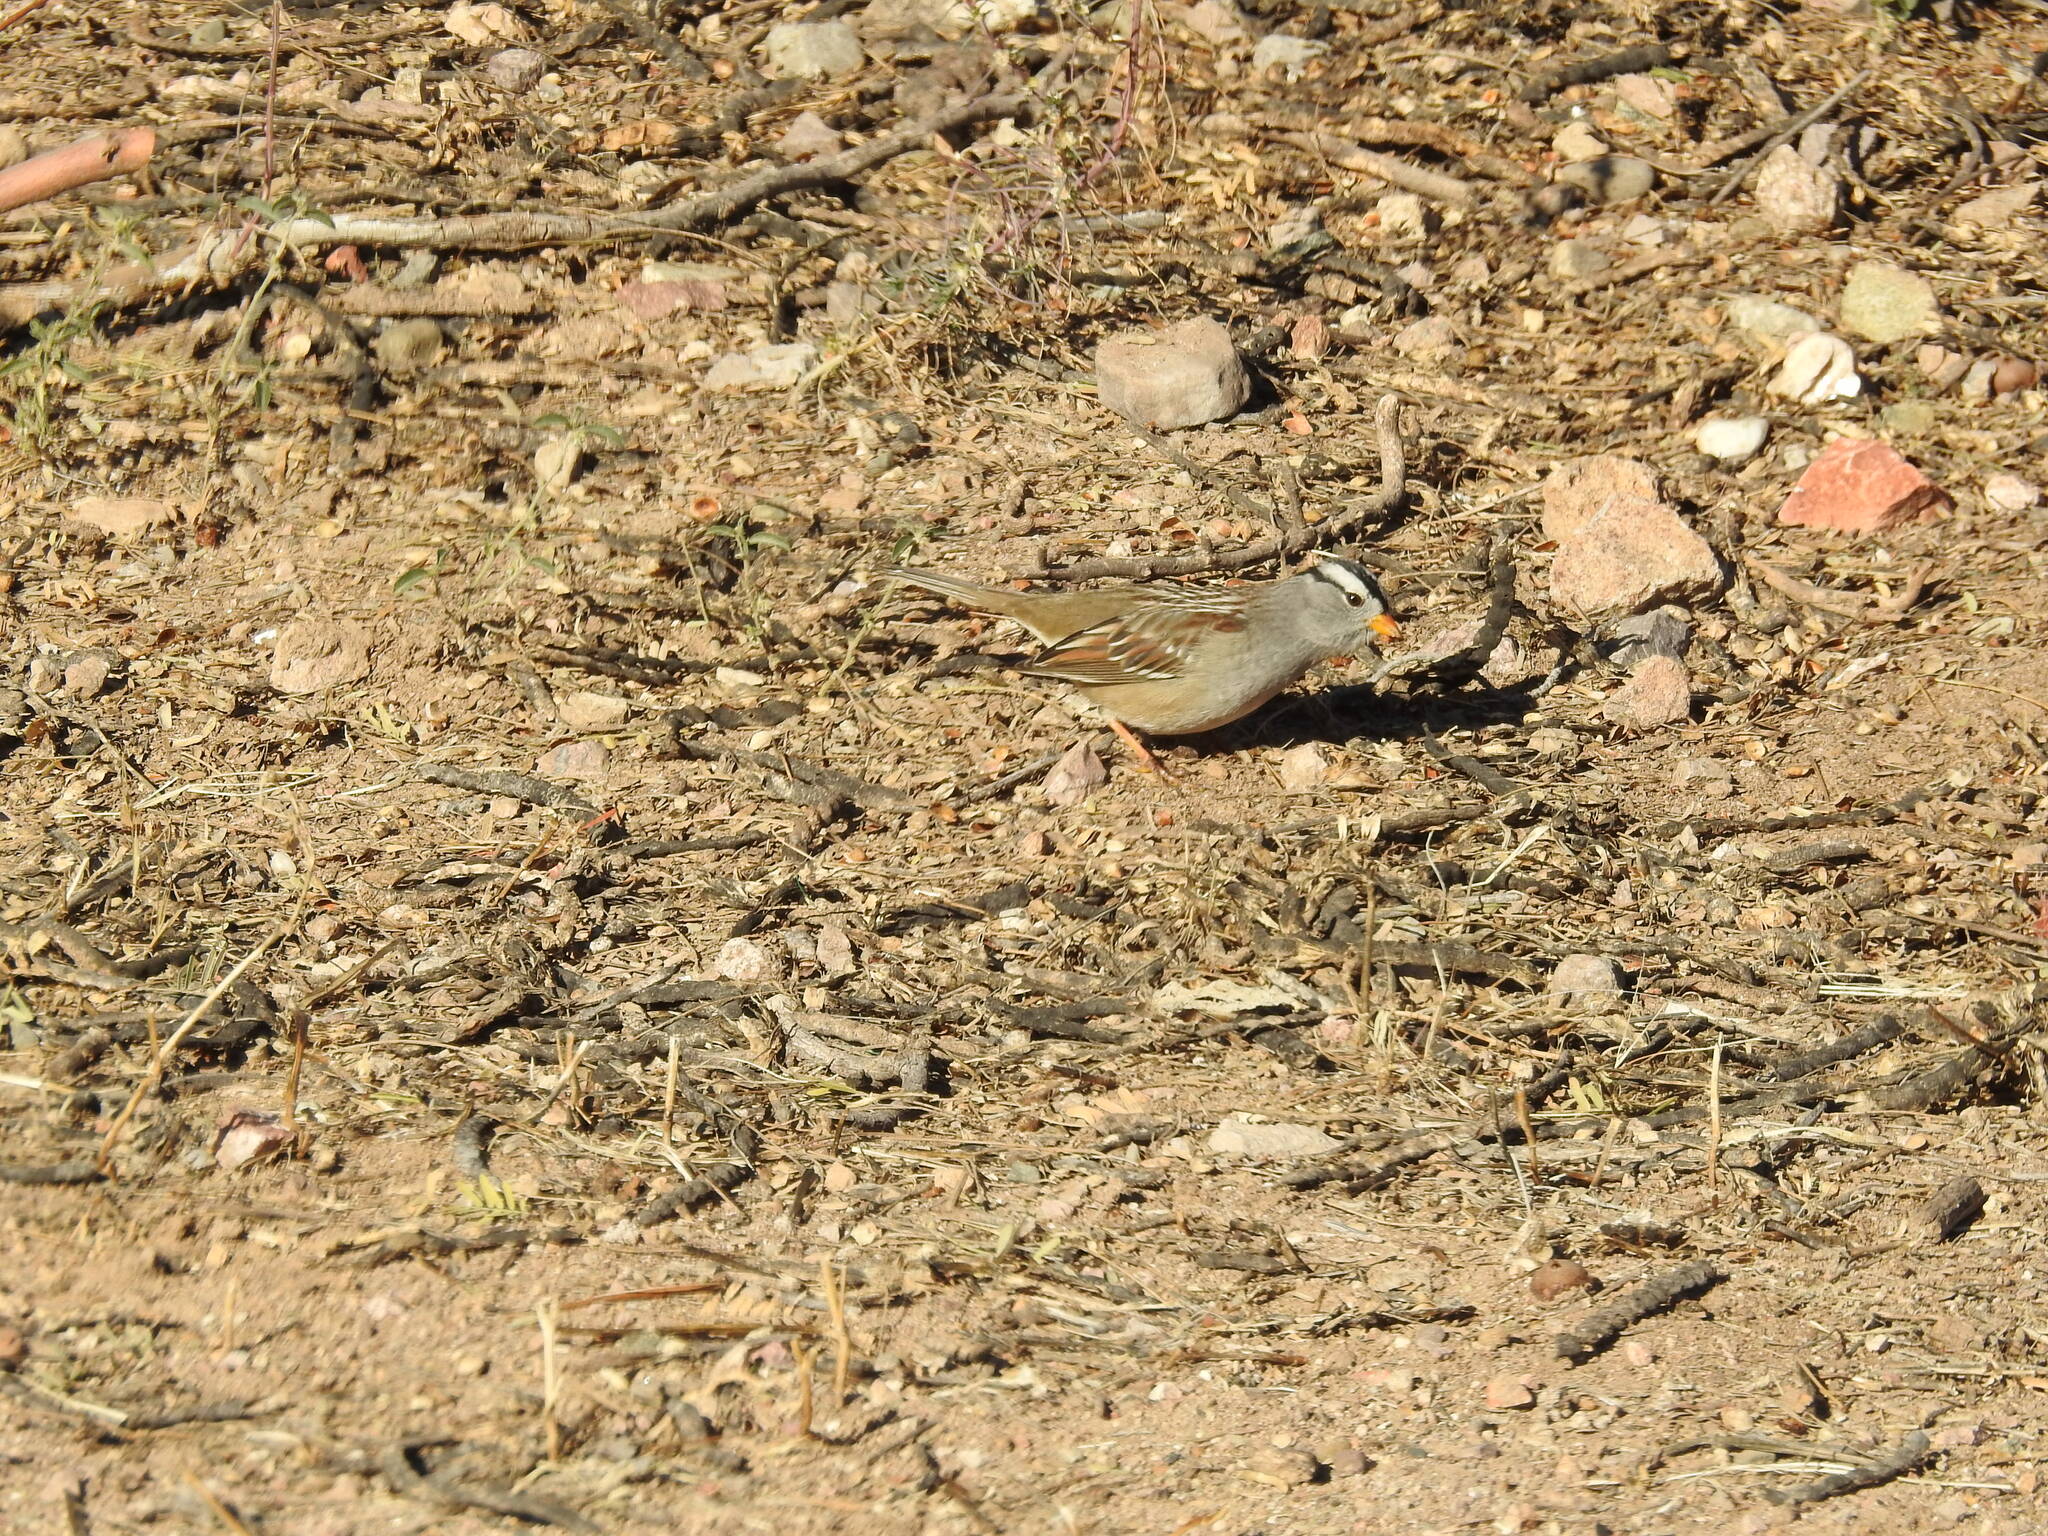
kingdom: Animalia
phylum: Chordata
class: Aves
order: Passeriformes
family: Passerellidae
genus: Zonotrichia
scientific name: Zonotrichia leucophrys
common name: White-crowned sparrow
